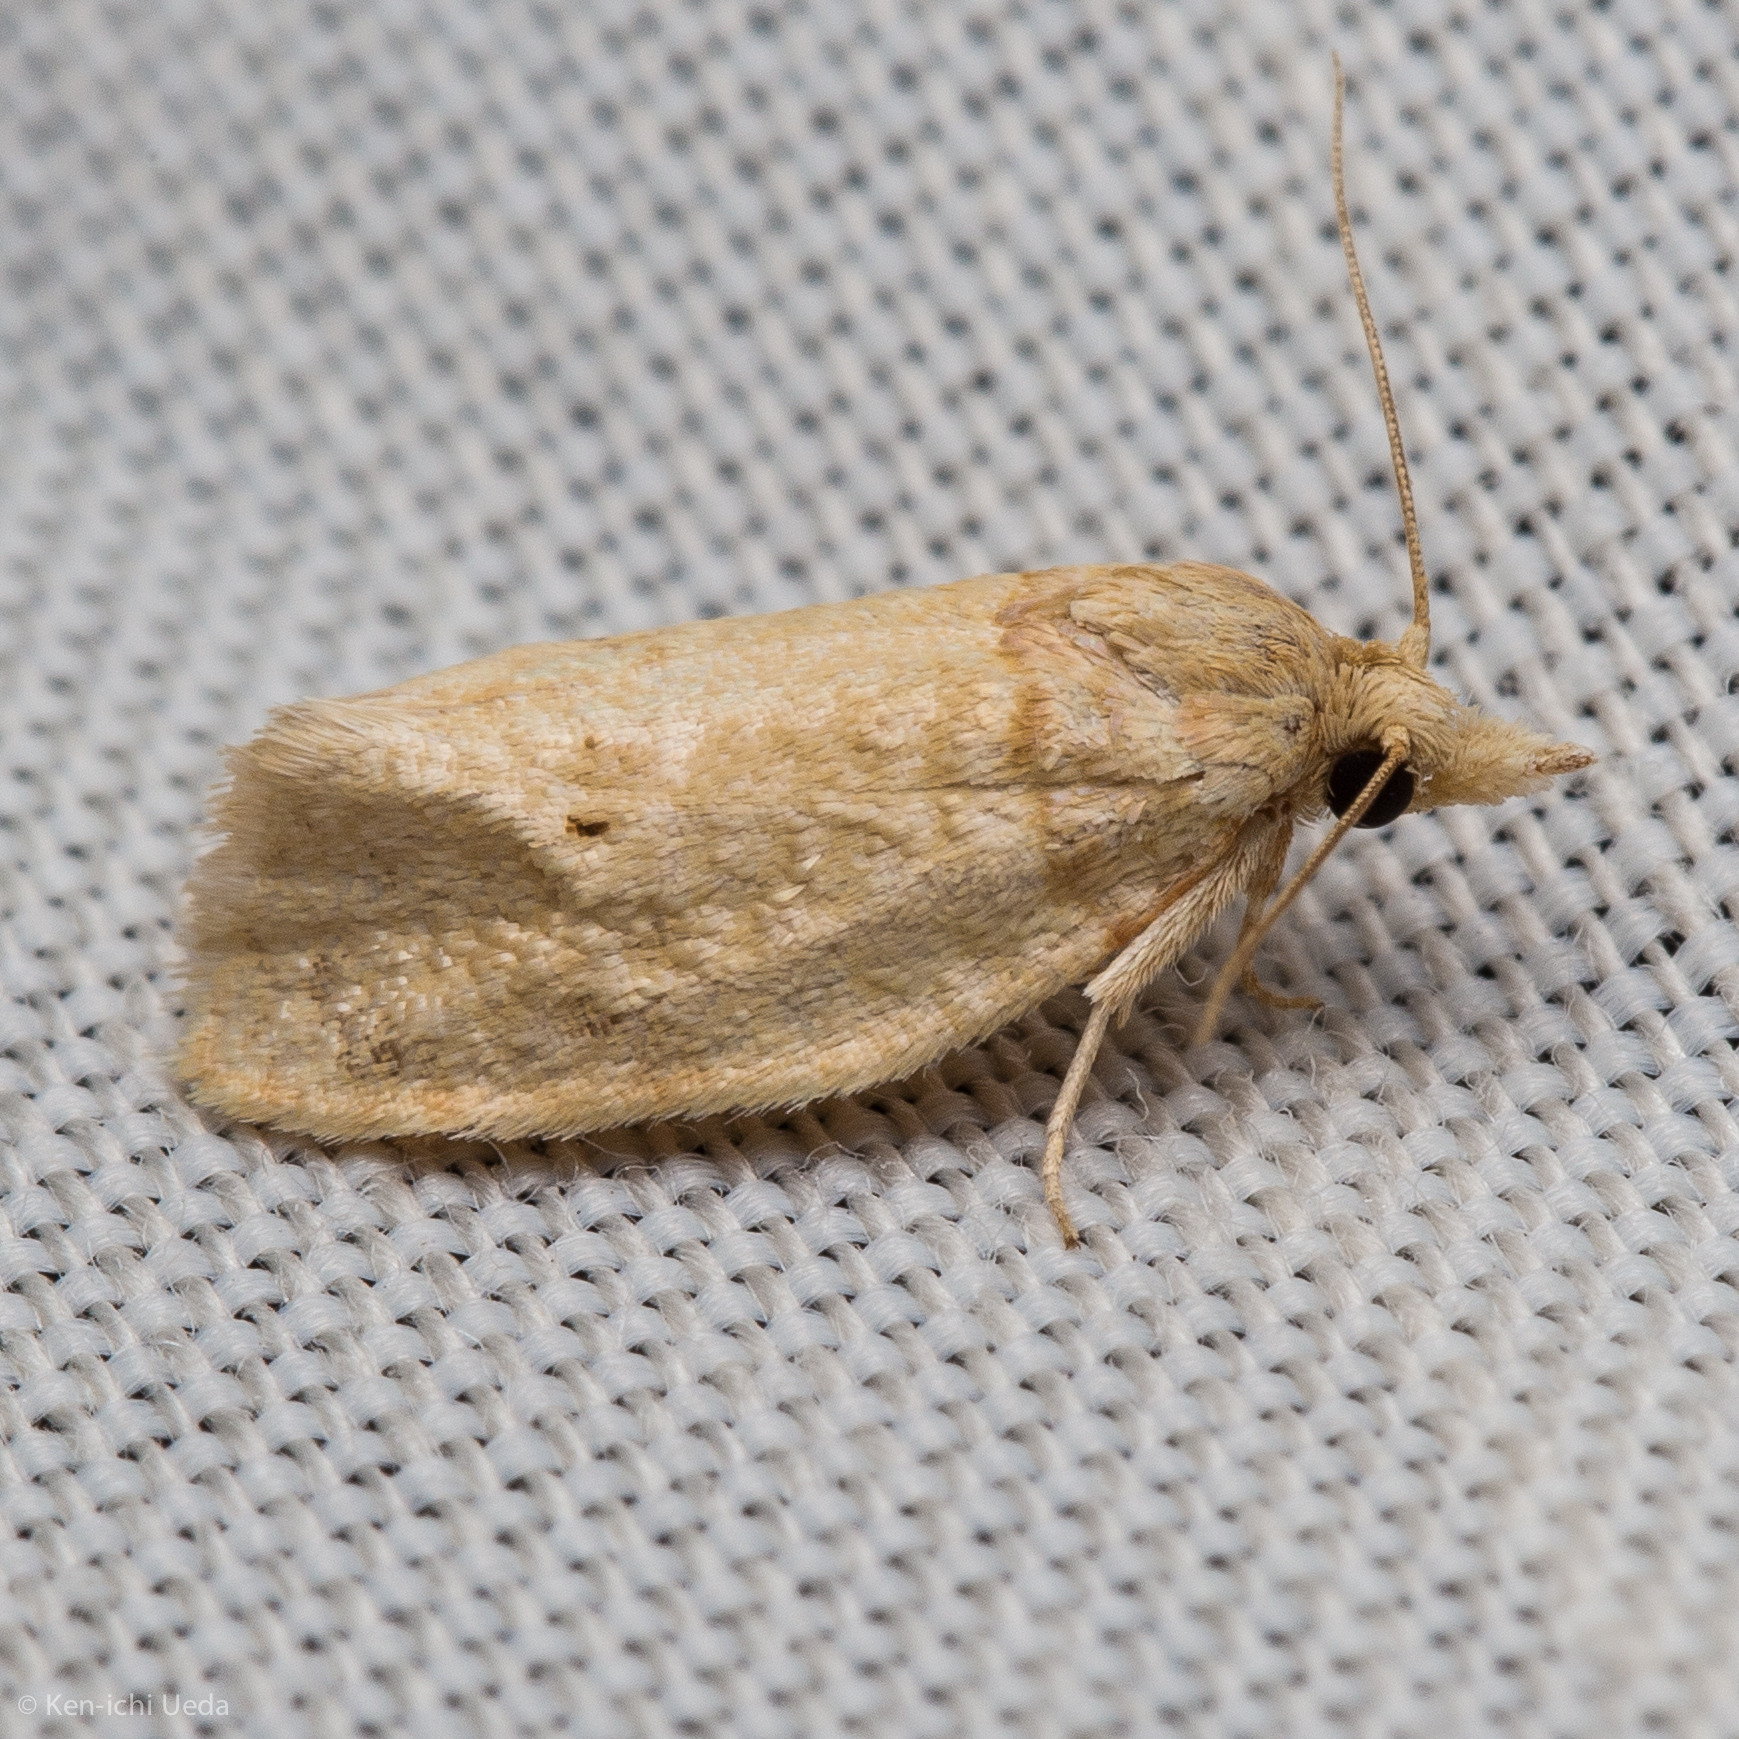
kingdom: Animalia
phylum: Arthropoda
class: Insecta
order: Lepidoptera
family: Tortricidae
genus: Henricus
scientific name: Henricus umbrabasana
